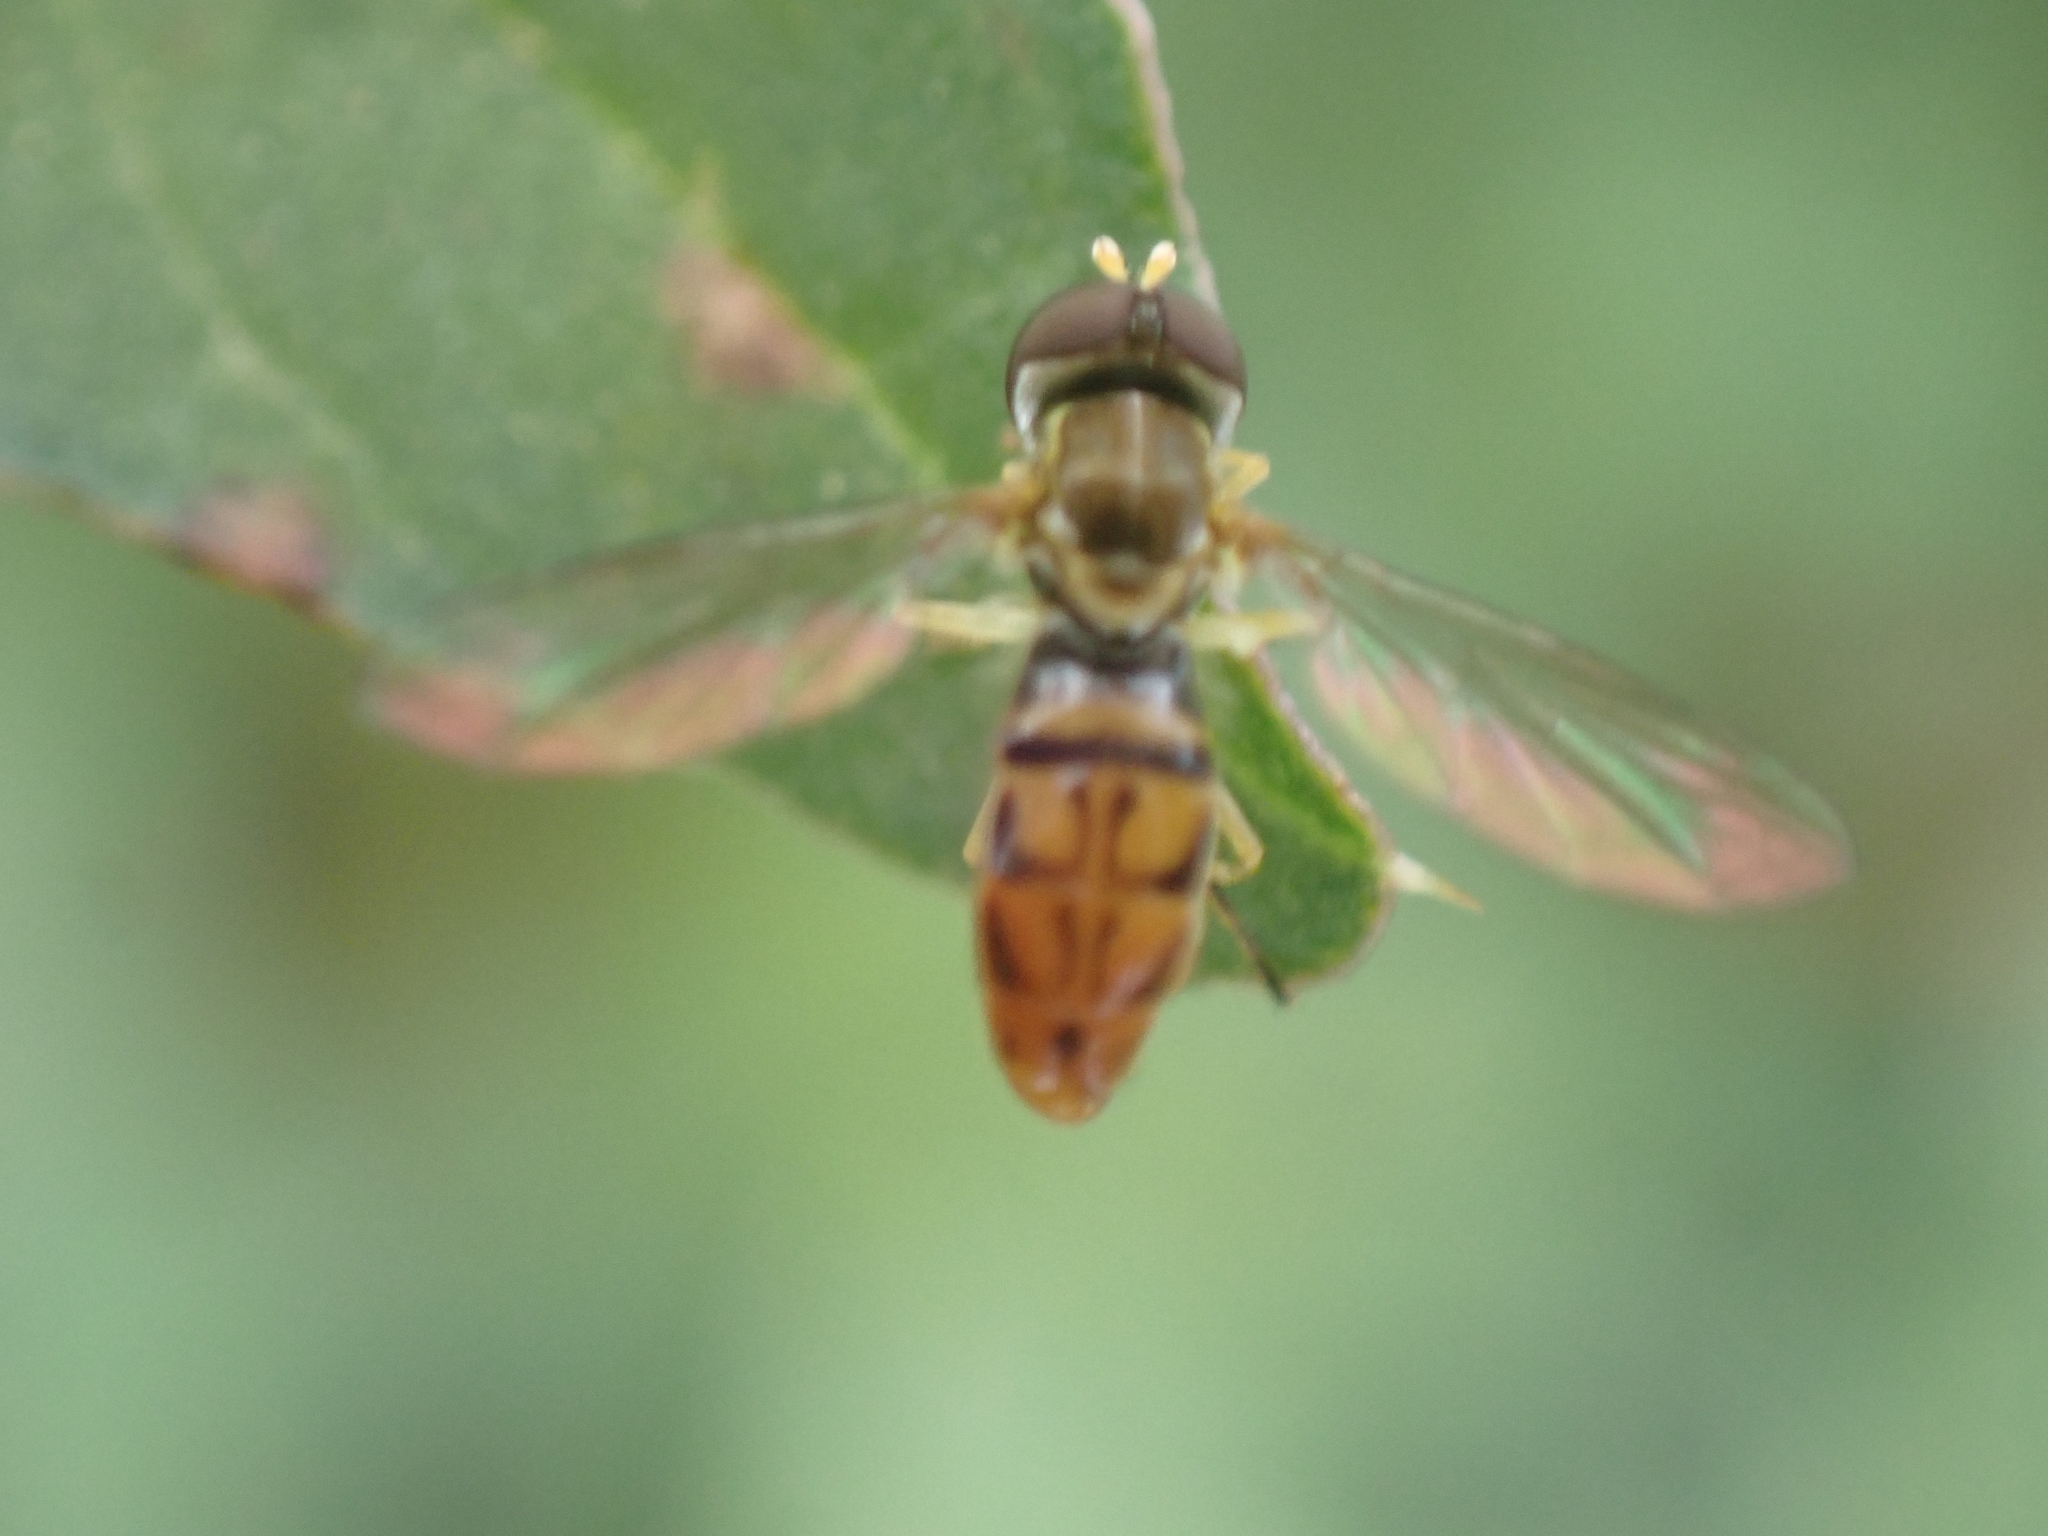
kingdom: Animalia
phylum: Arthropoda
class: Insecta
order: Diptera
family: Syrphidae
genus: Toxomerus
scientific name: Toxomerus marginatus
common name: Syrphid fly
